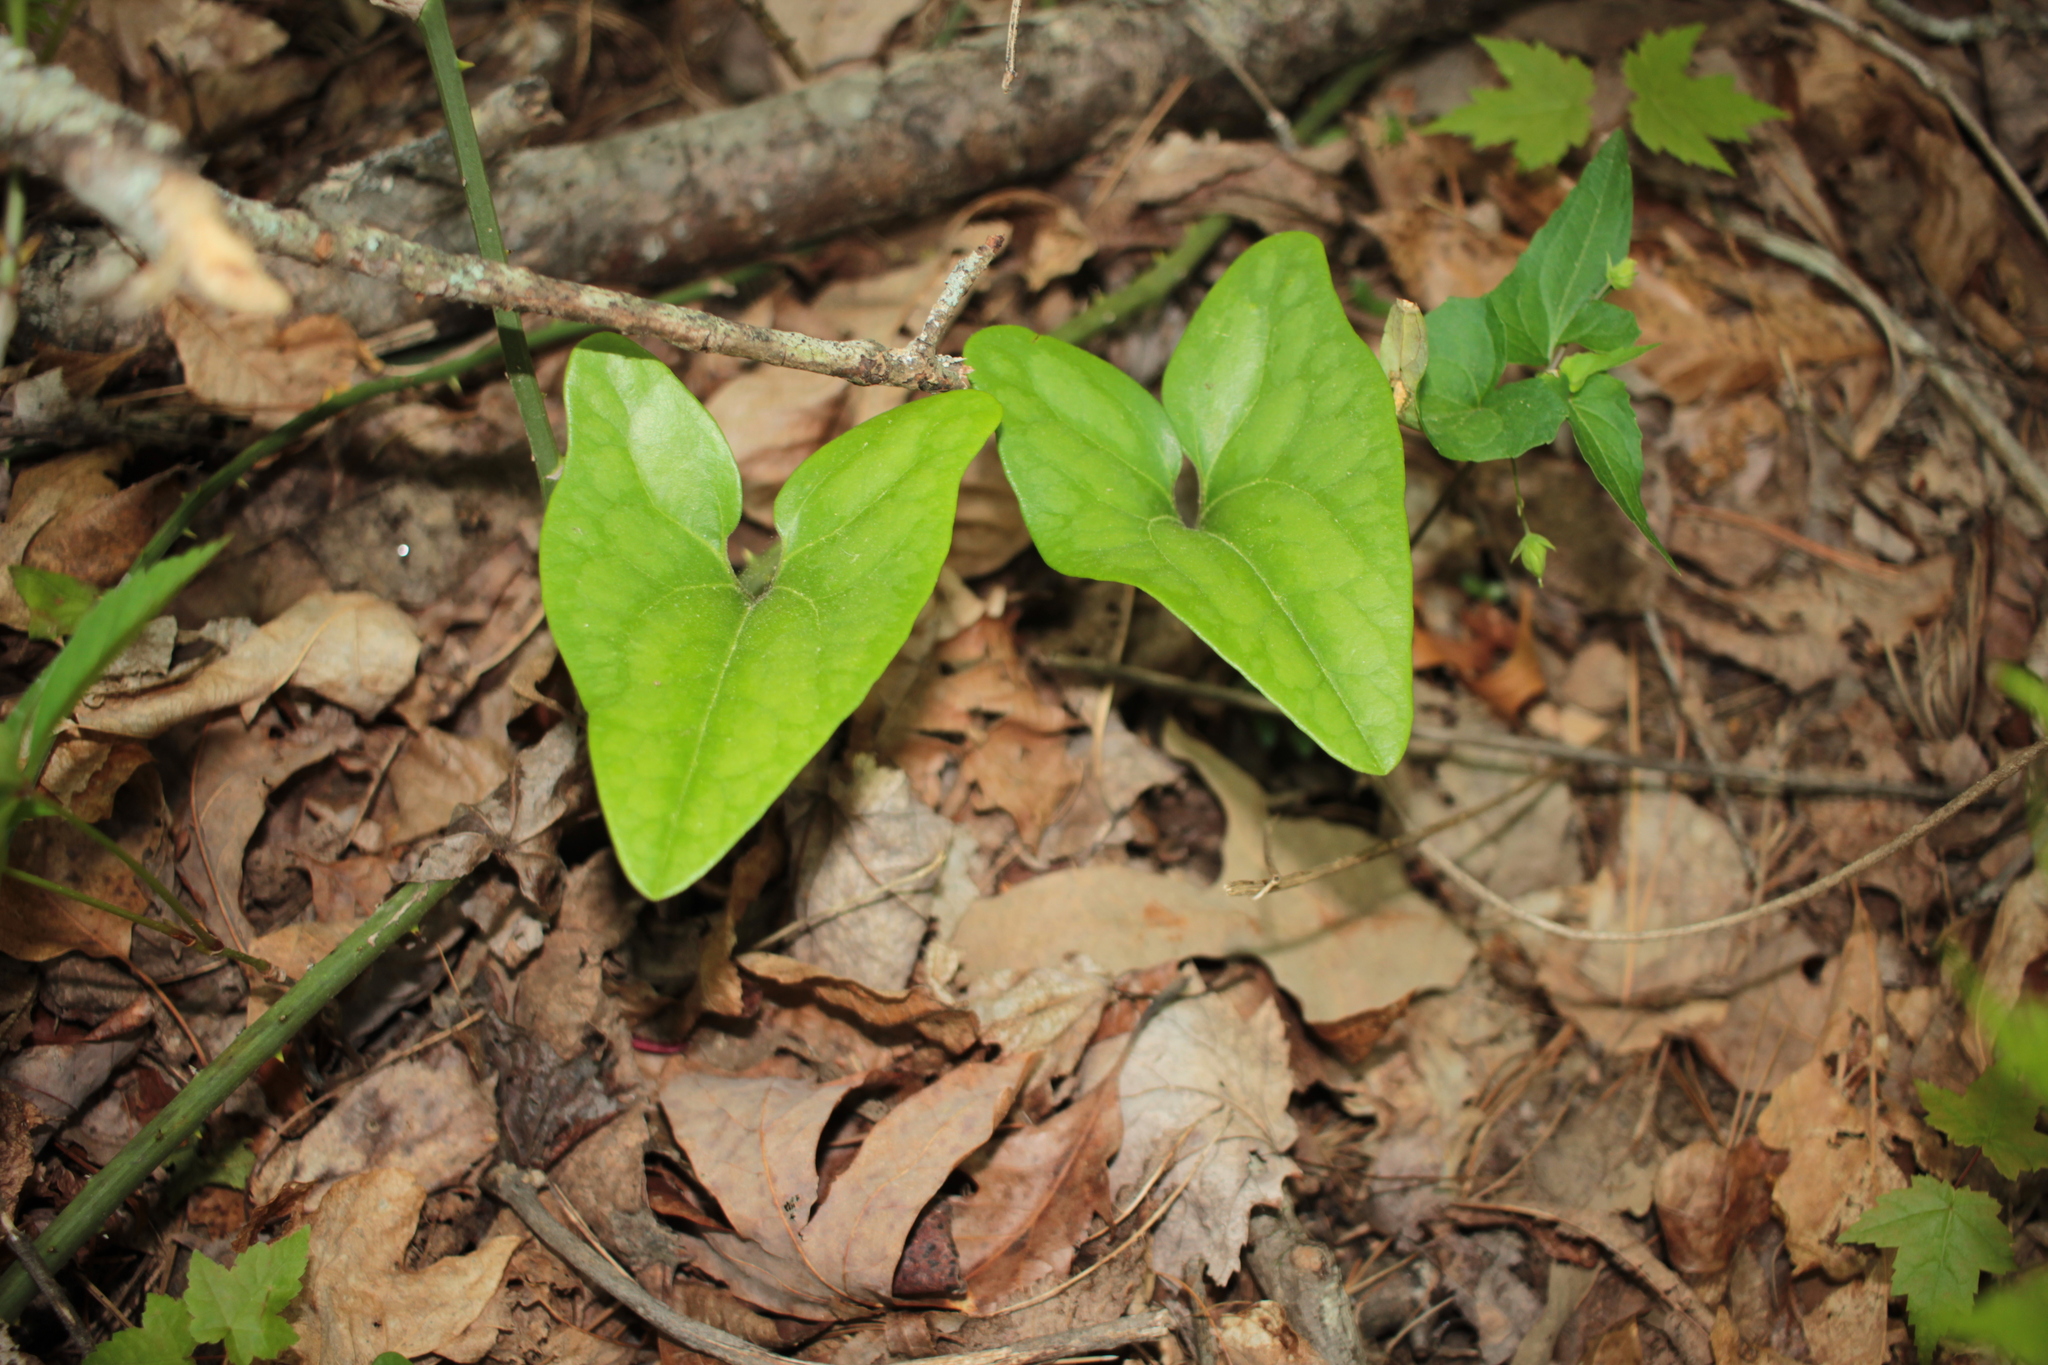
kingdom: Plantae
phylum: Tracheophyta
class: Magnoliopsida
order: Piperales
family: Aristolochiaceae
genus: Hexastylis
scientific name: Hexastylis arifolia
